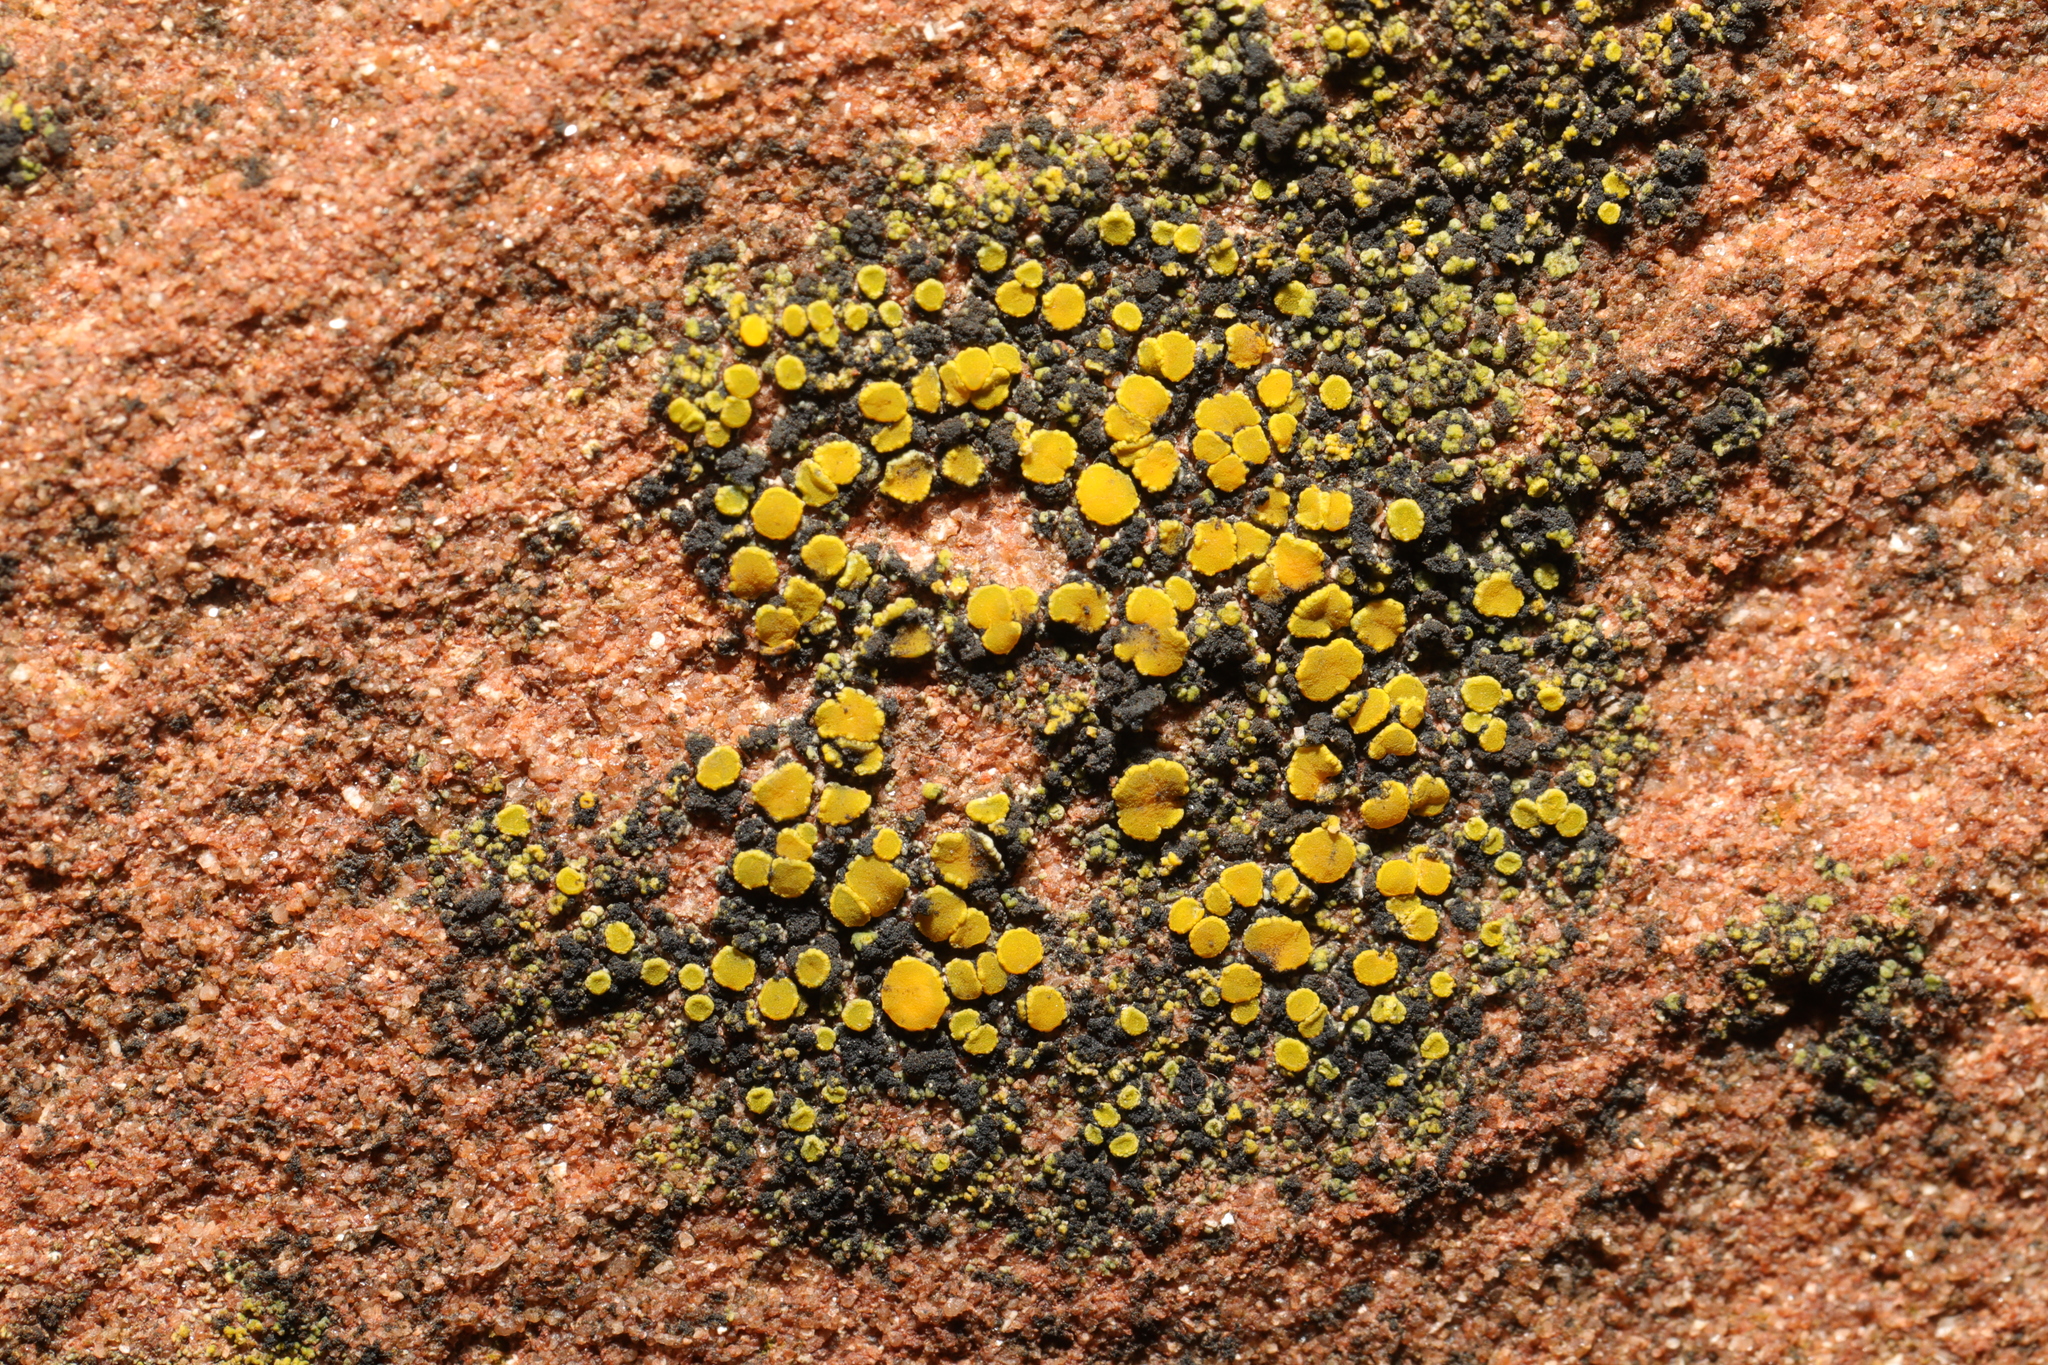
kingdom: Fungi
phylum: Ascomycota
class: Candelariomycetes
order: Candelariales
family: Candelariaceae
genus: Candelariella
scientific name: Candelariella aurella
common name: Hidden goldspeck lichen
